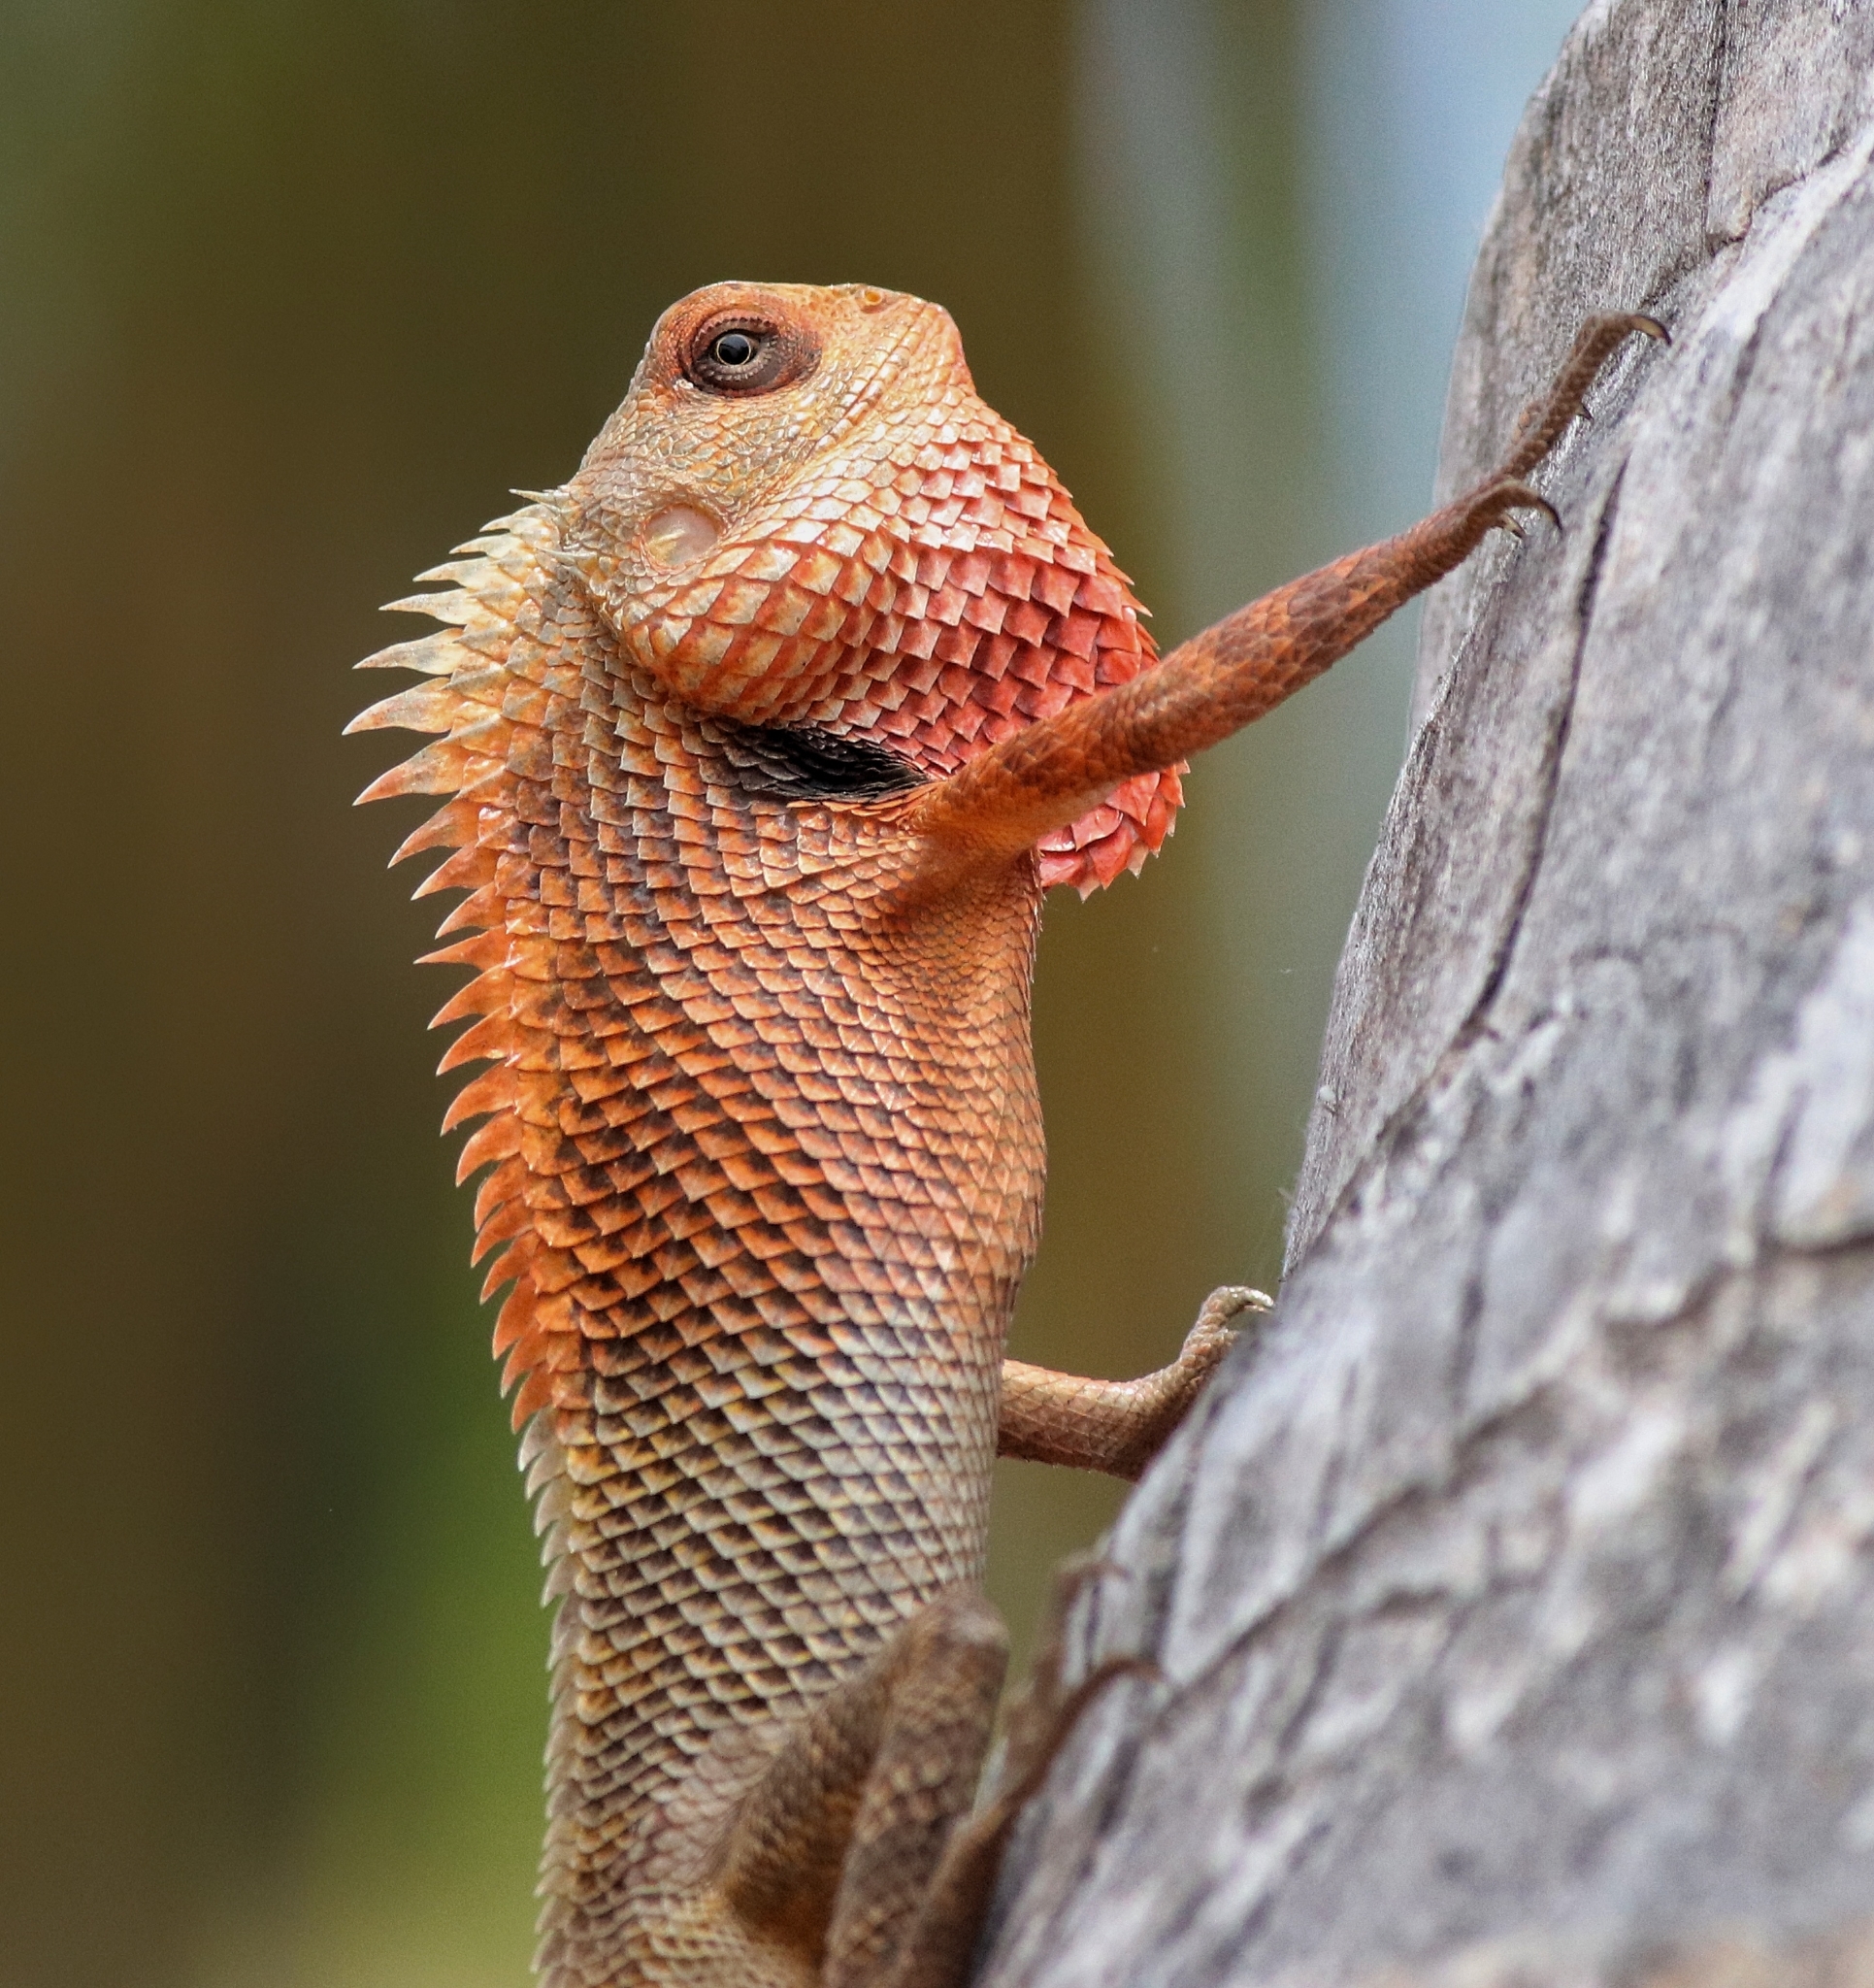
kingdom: Animalia
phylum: Chordata
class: Squamata
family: Agamidae
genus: Calotes
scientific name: Calotes versicolor
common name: Oriental garden lizard
